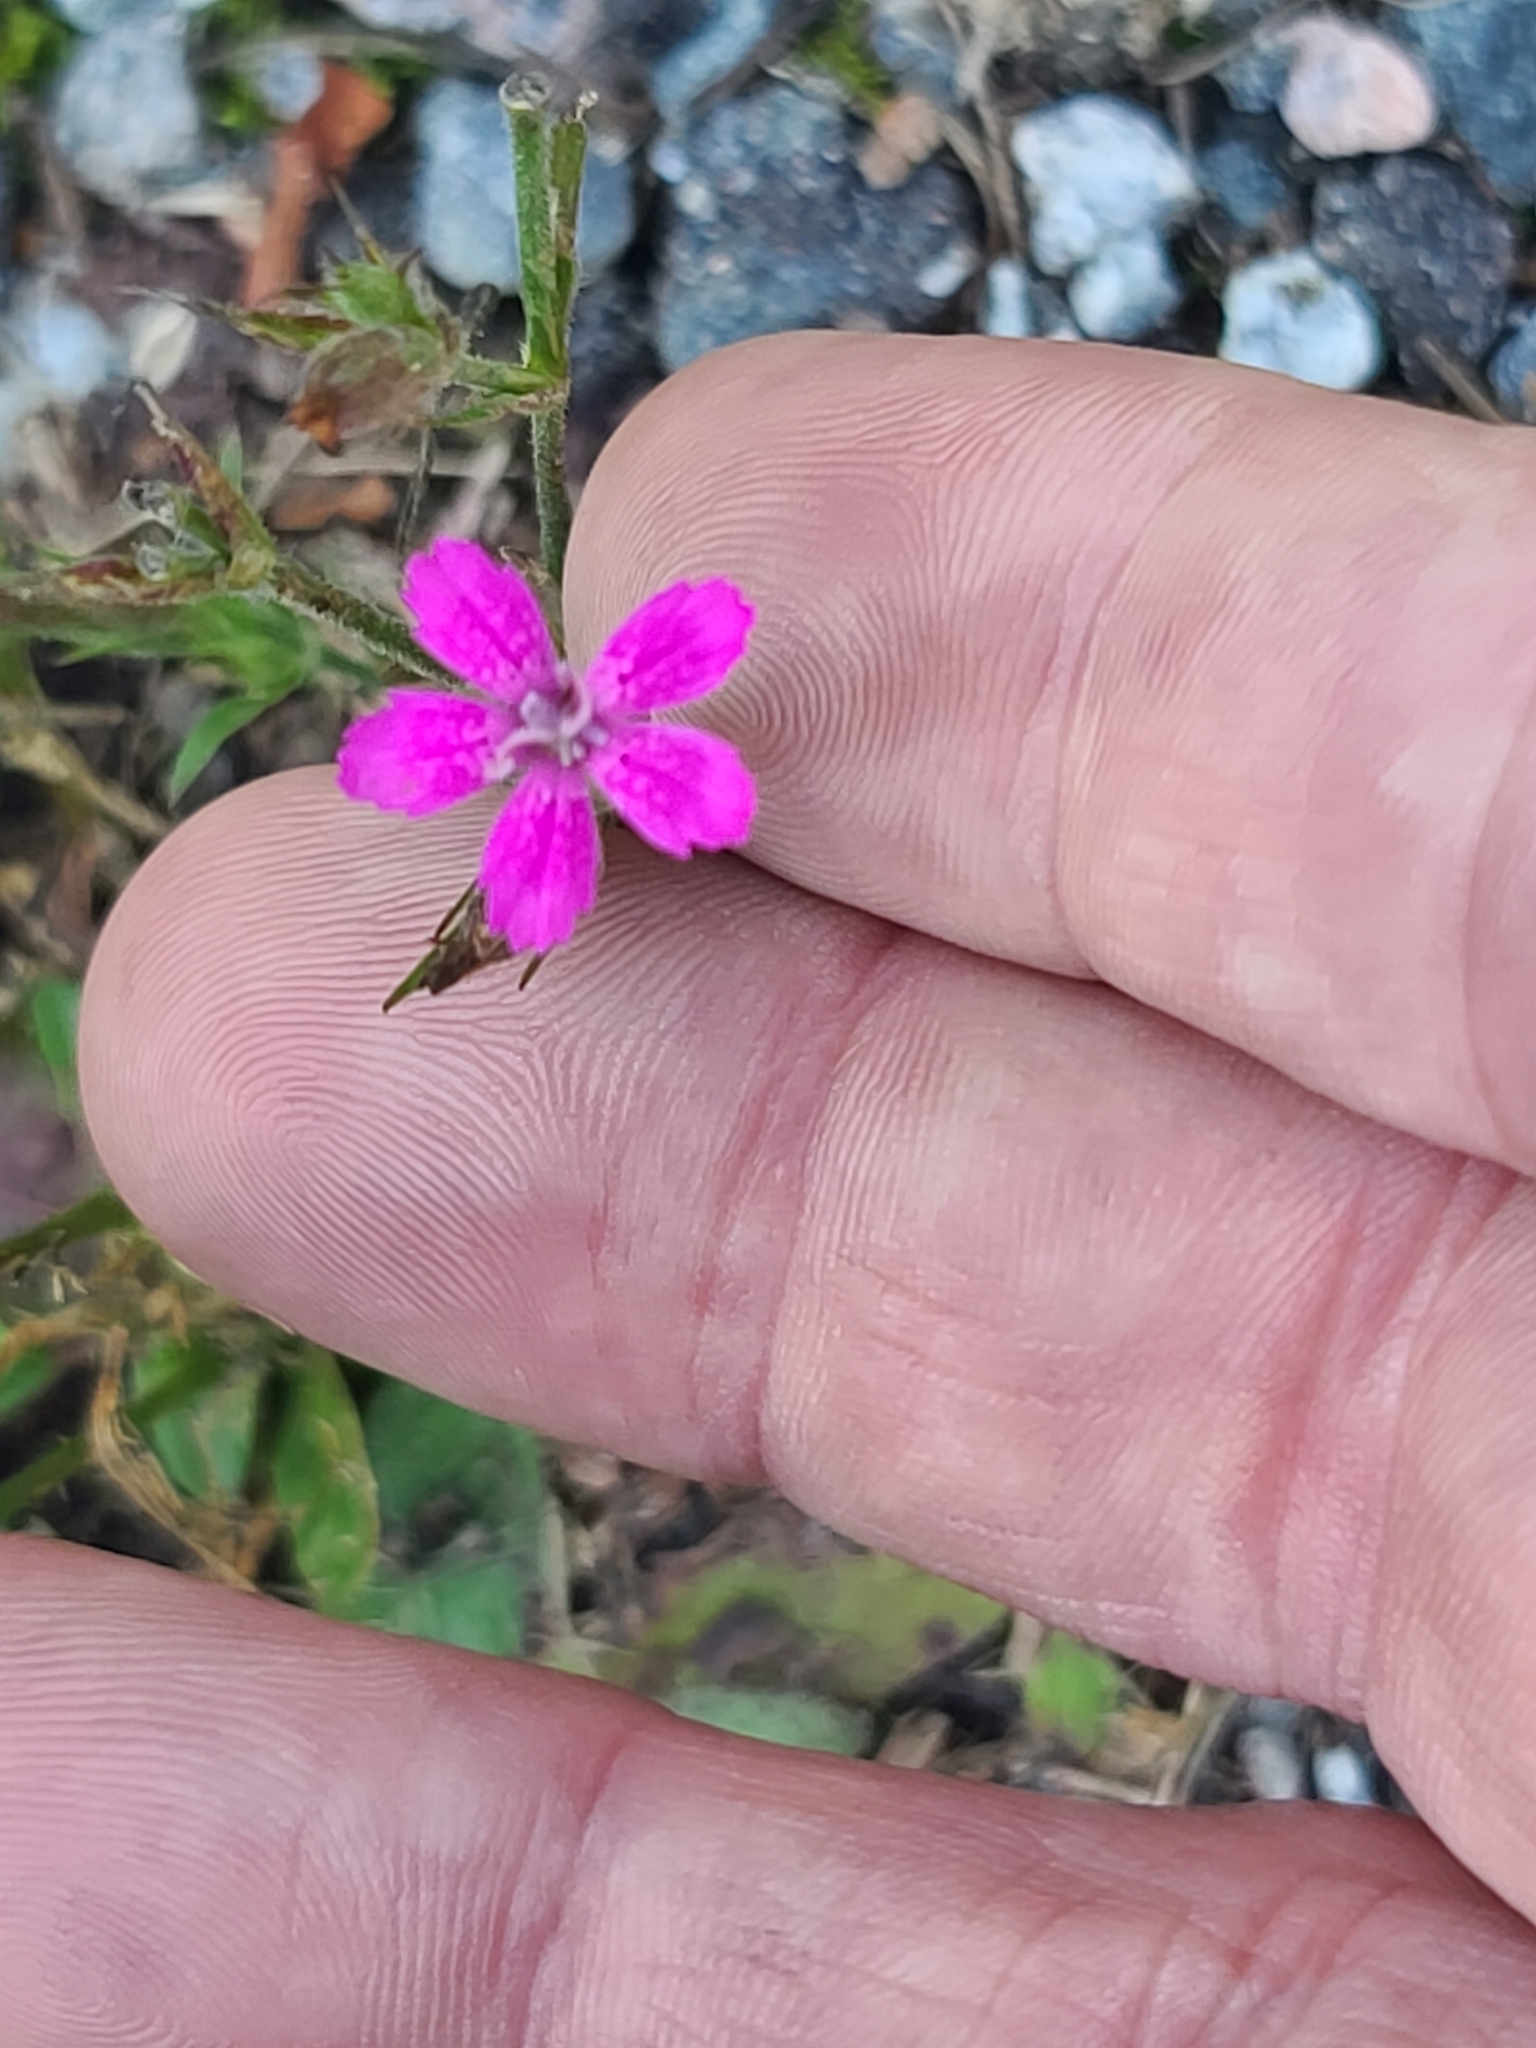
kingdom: Plantae
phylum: Tracheophyta
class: Magnoliopsida
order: Caryophyllales
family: Caryophyllaceae
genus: Dianthus
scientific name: Dianthus armeria
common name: Deptford pink
